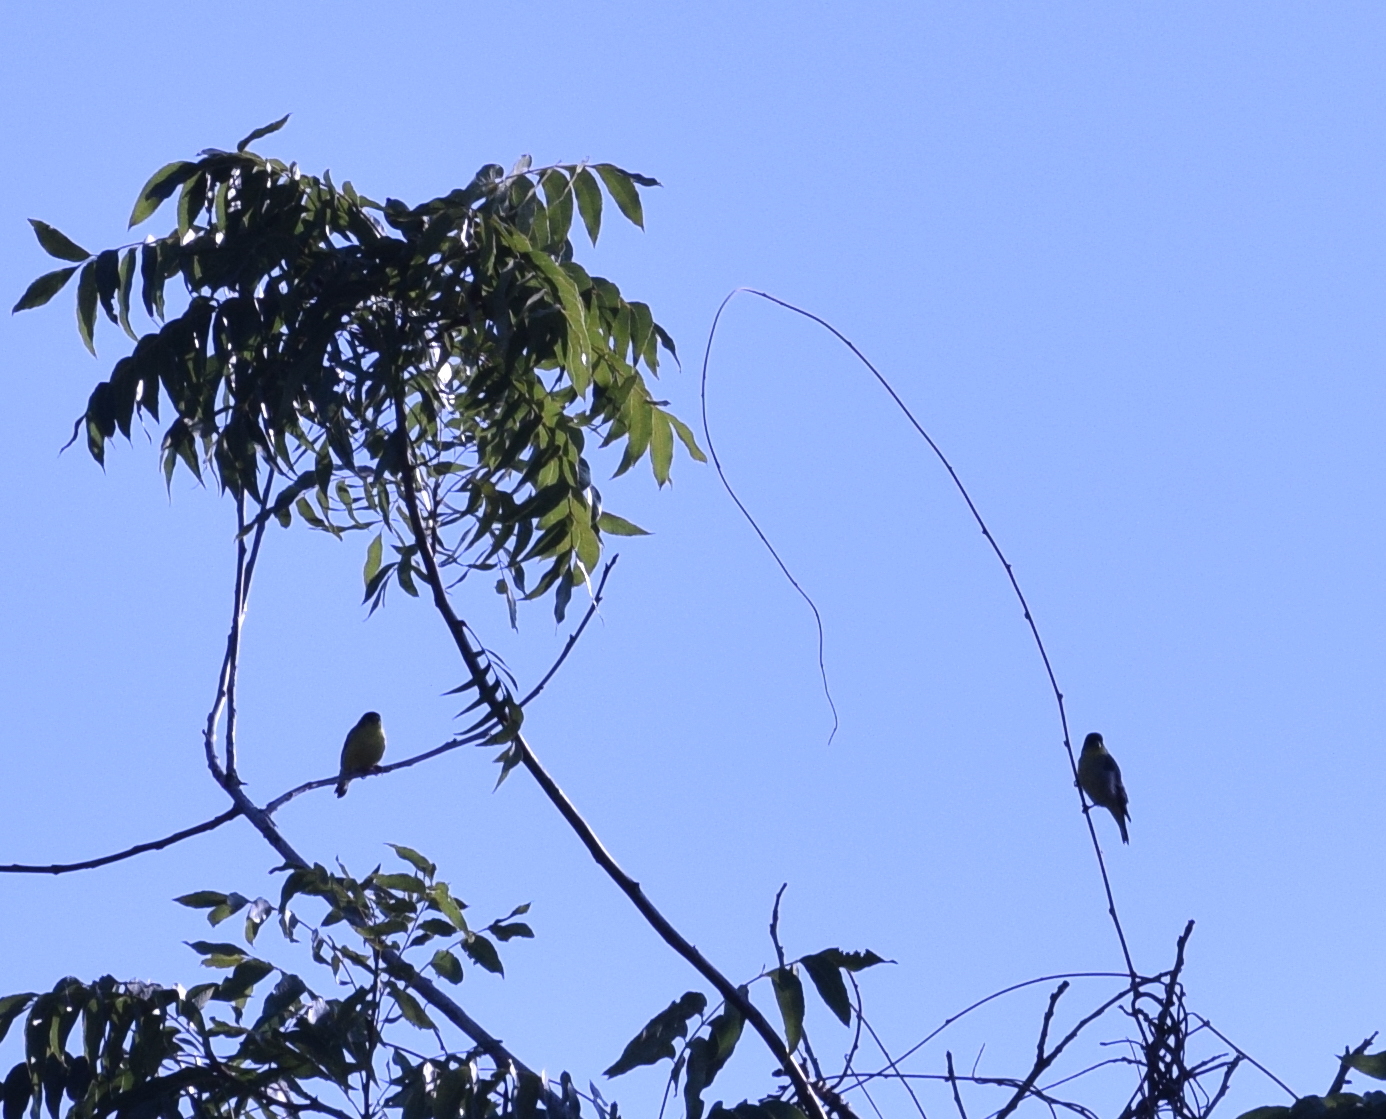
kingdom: Animalia
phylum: Chordata
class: Aves
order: Passeriformes
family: Fringillidae
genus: Spinus
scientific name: Spinus psaltria
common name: Lesser goldfinch
